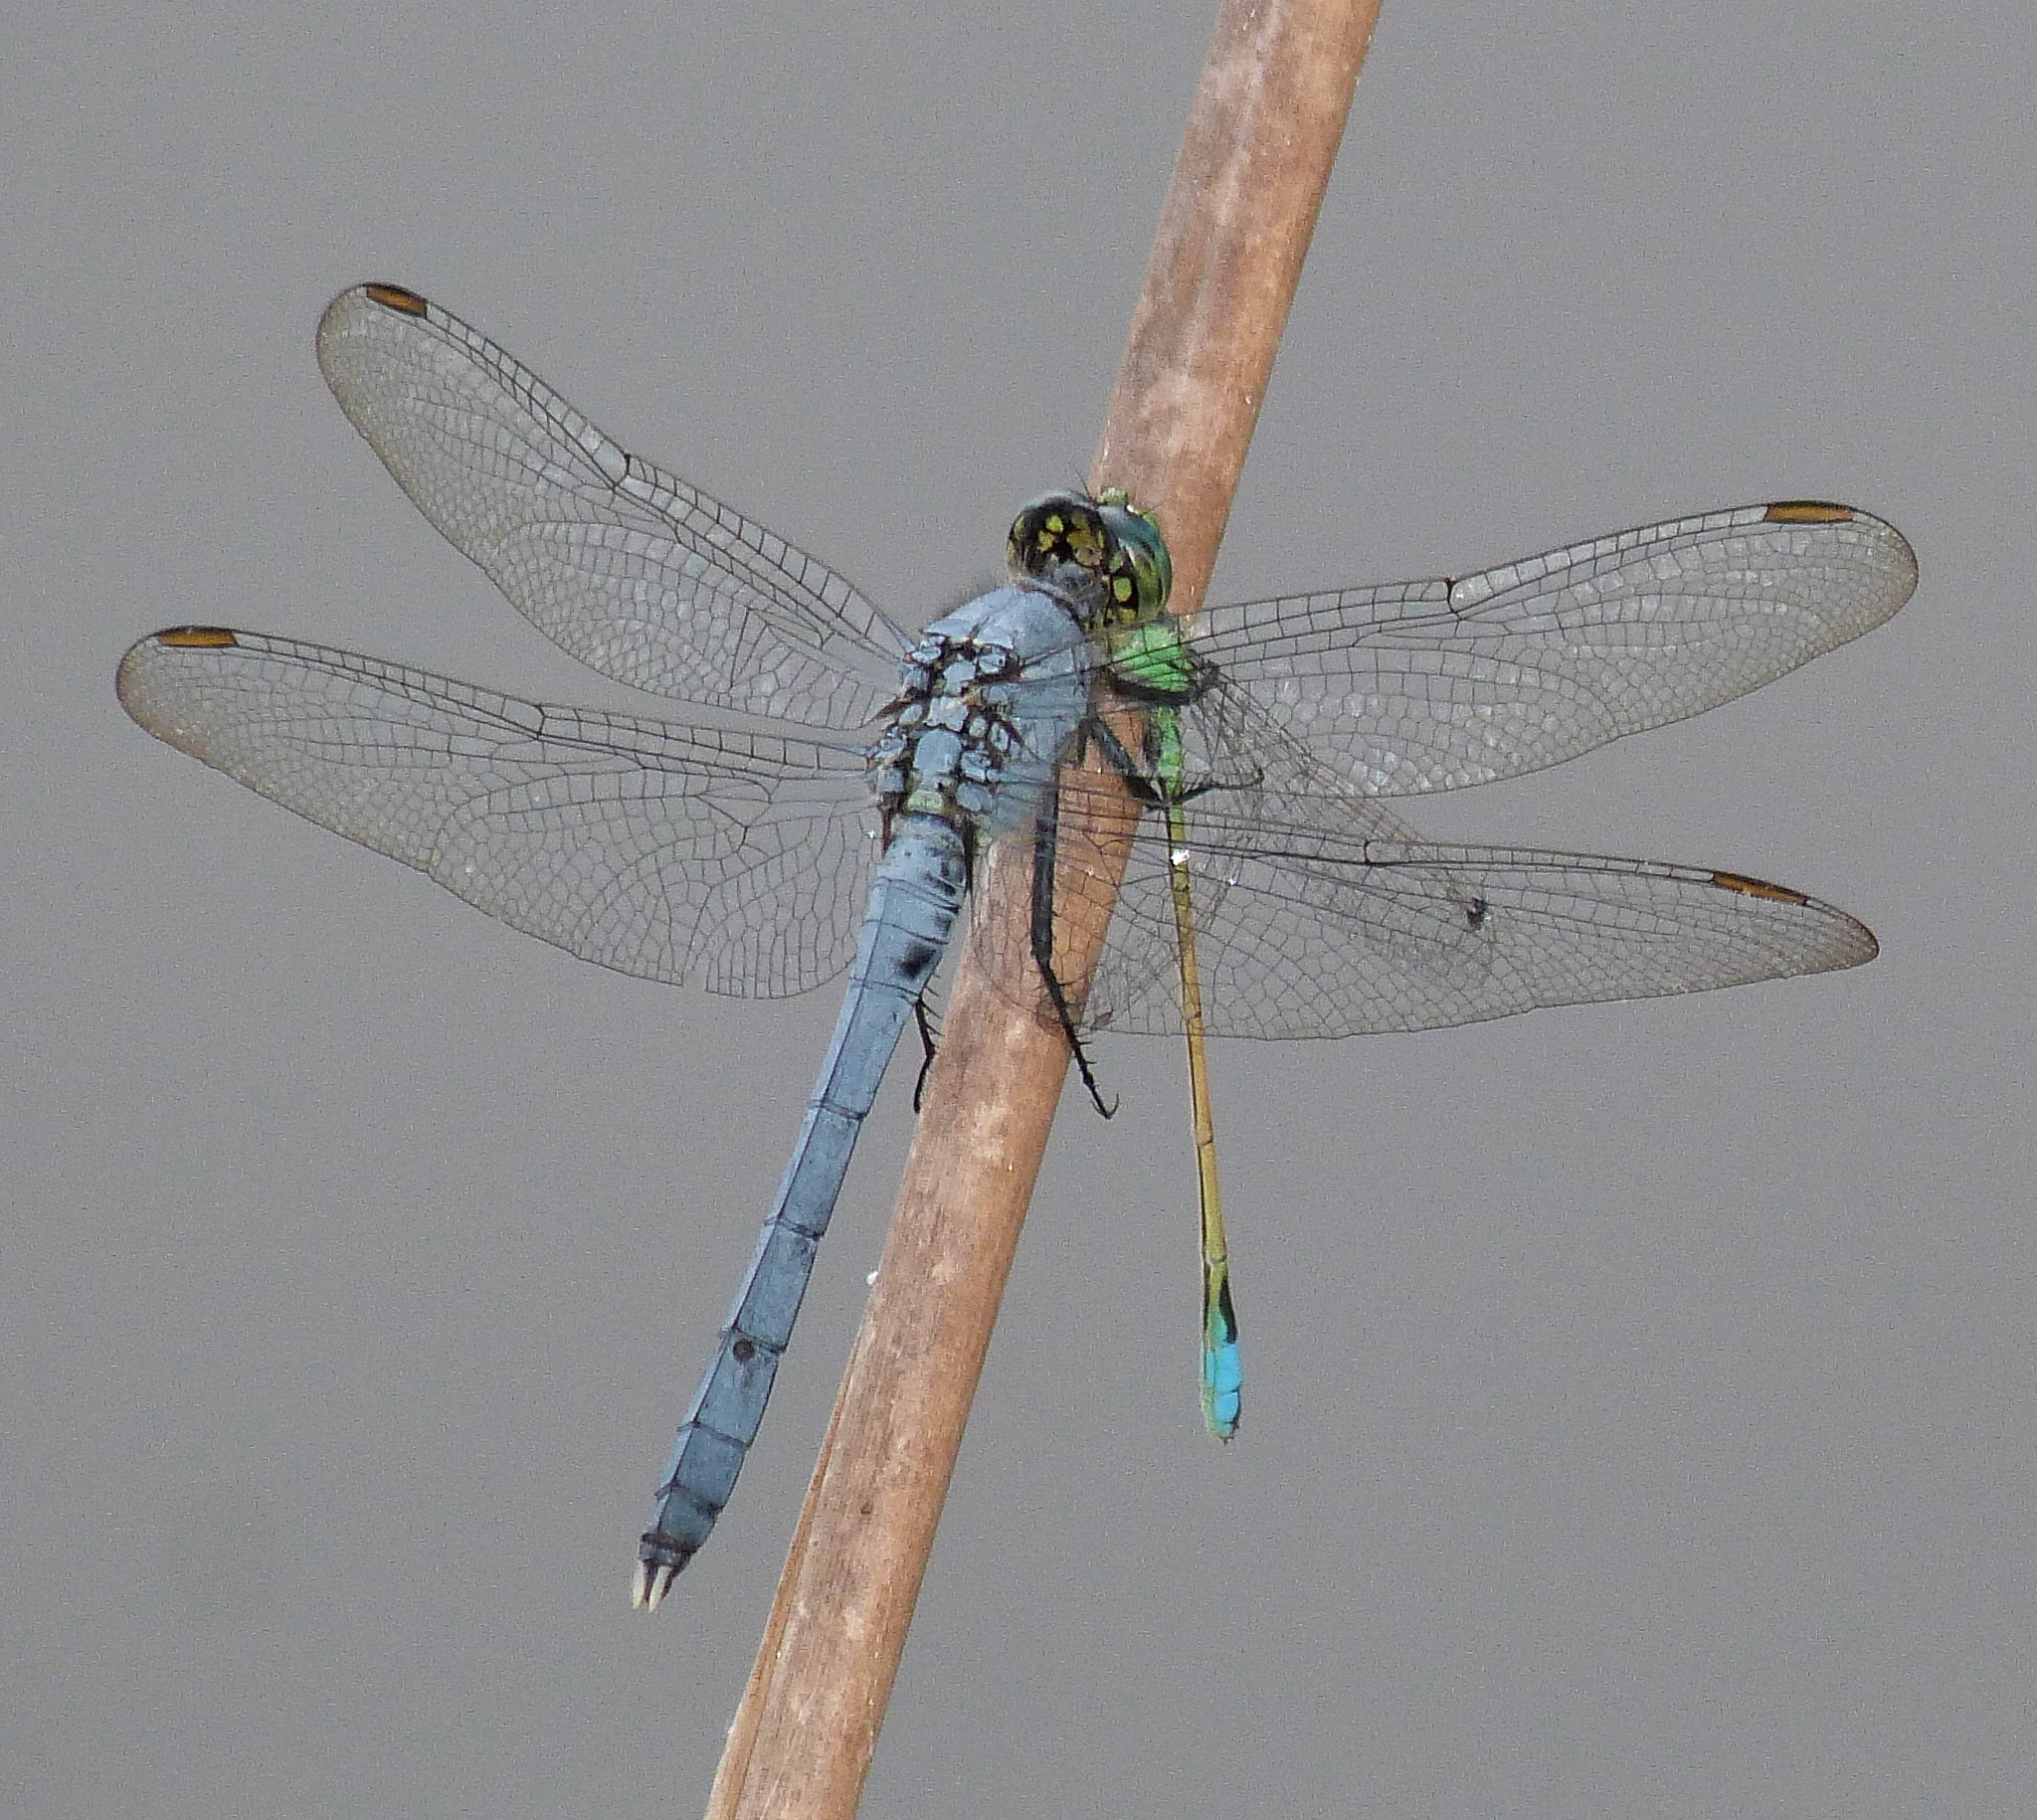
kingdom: Animalia
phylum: Arthropoda
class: Insecta
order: Odonata
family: Libellulidae
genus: Erythemis
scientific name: Erythemis simplicicollis
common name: Eastern pondhawk
